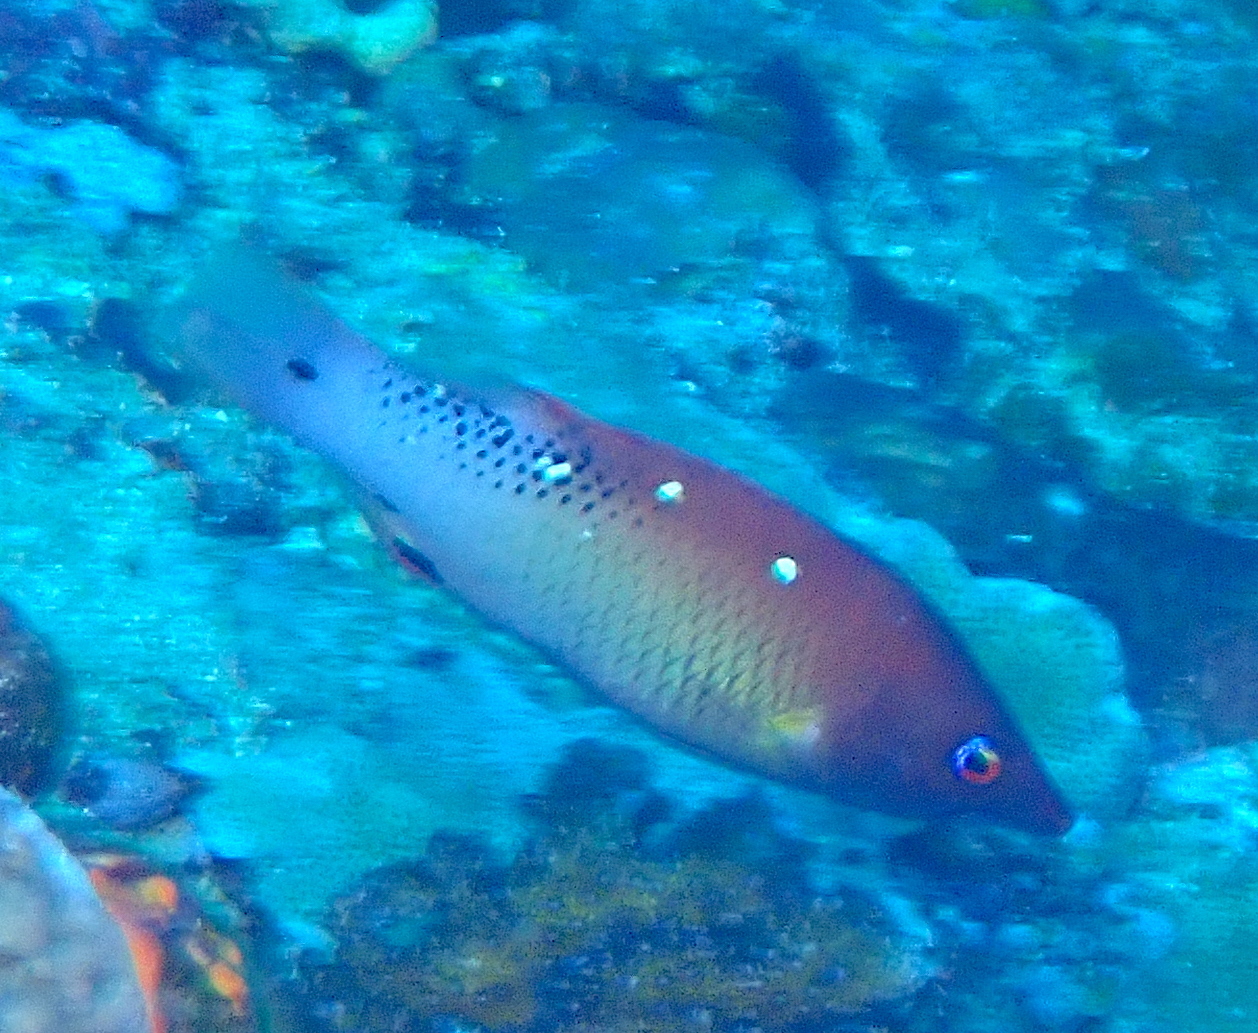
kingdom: Animalia
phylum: Chordata
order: Perciformes
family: Labridae
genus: Bodianus
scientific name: Bodianus dictynna
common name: Diana's hogfish
